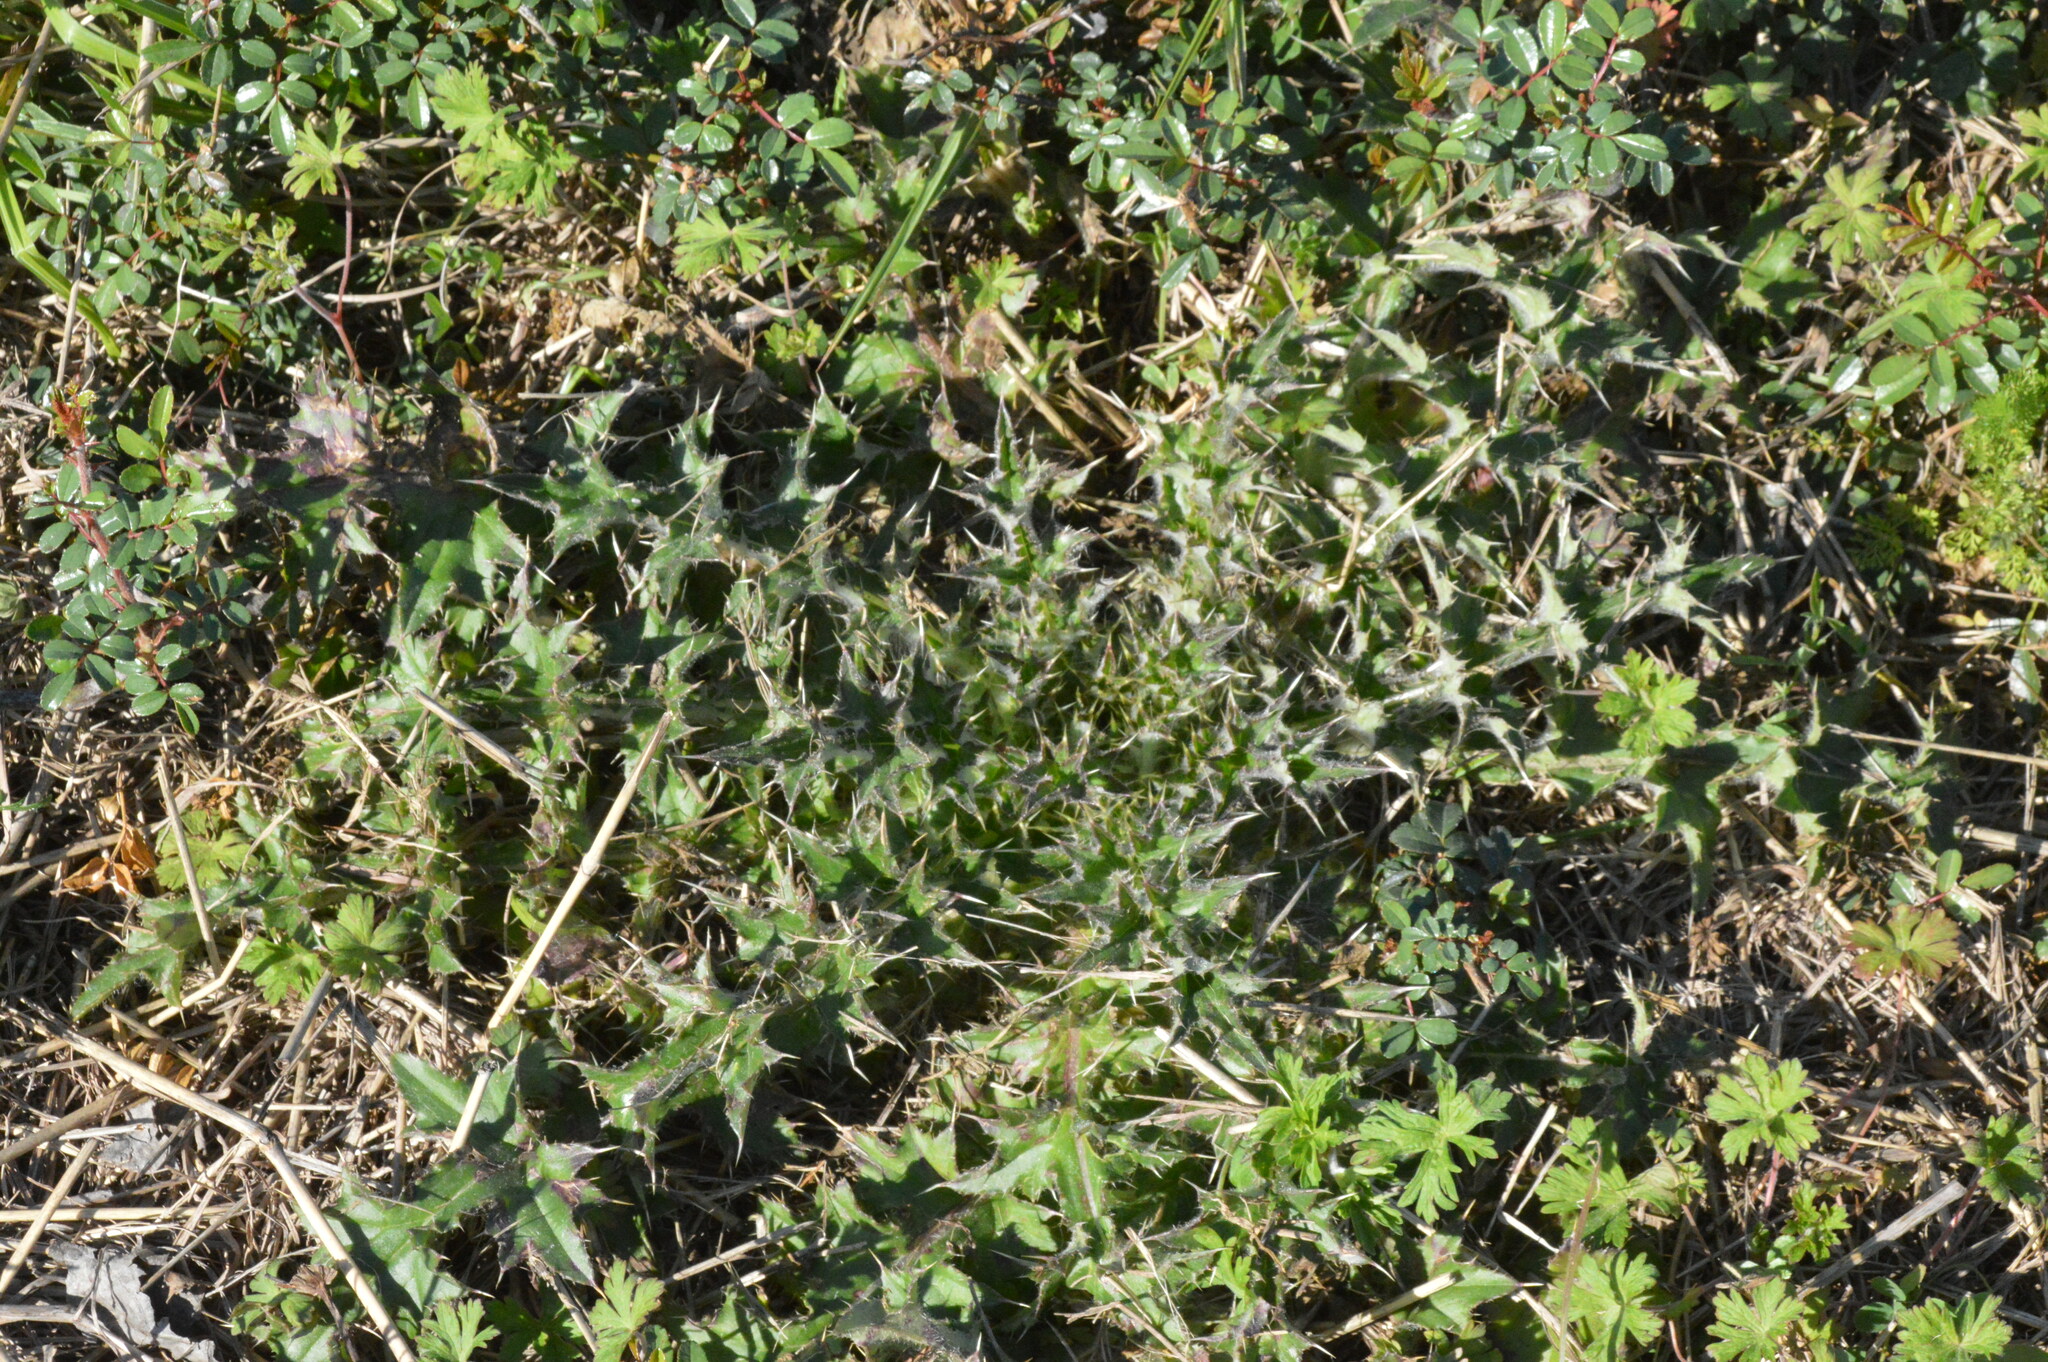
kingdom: Plantae
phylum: Tracheophyta
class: Magnoliopsida
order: Asterales
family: Asteraceae
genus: Cirsium
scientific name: Cirsium horridulum
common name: Bristly thistle
